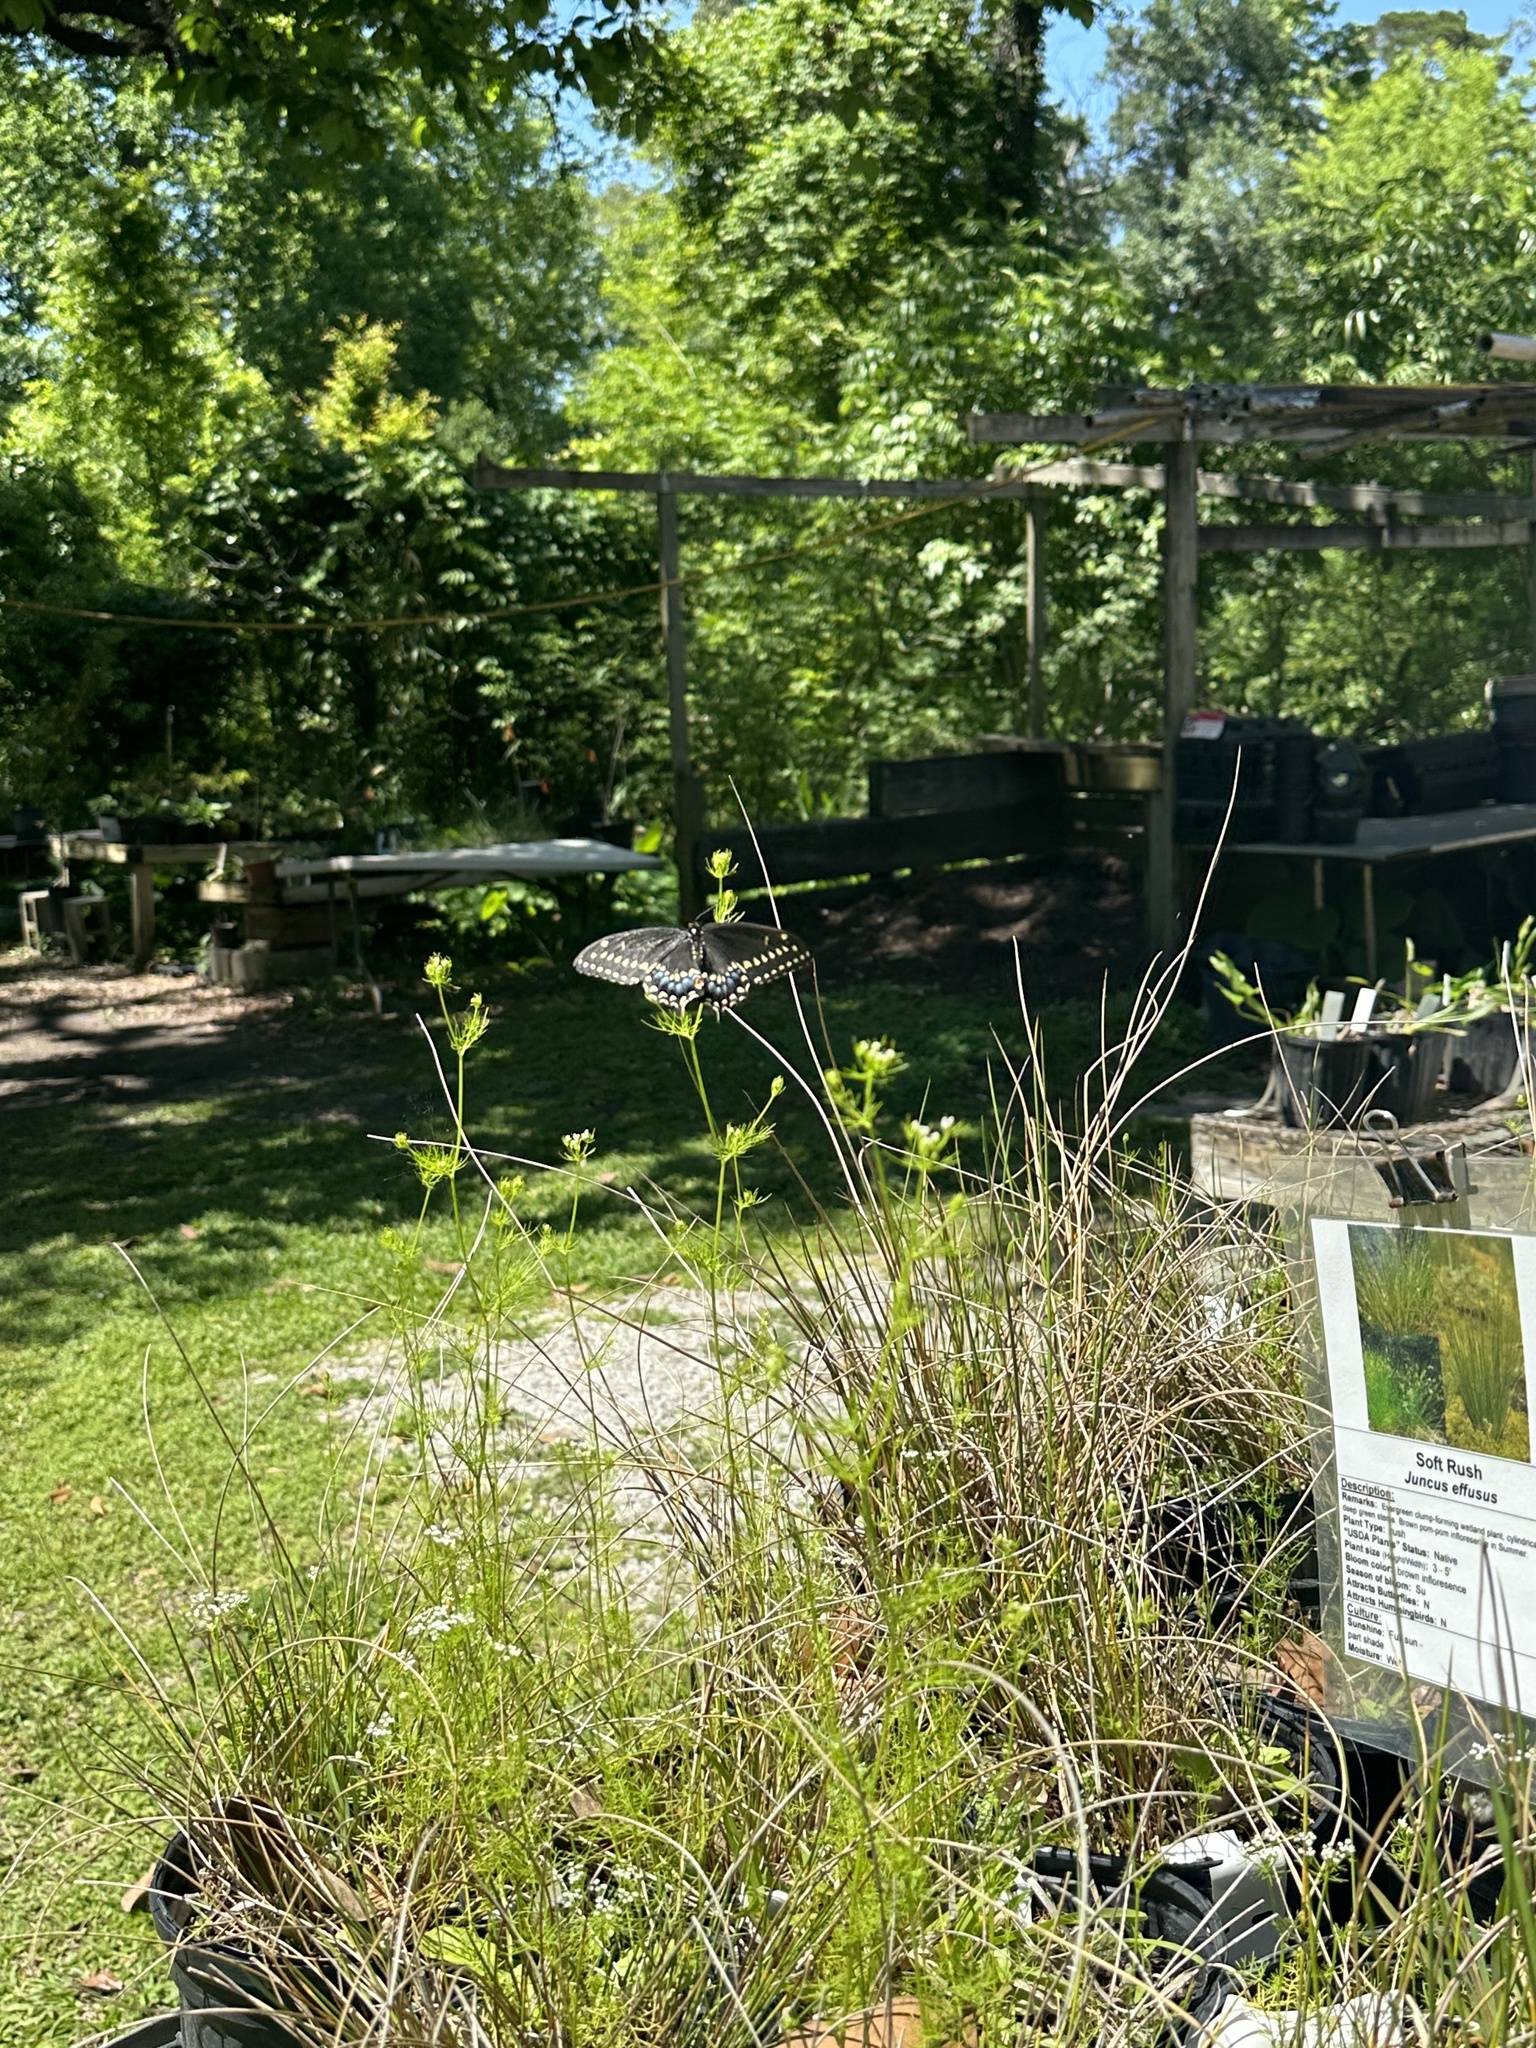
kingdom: Animalia
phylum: Arthropoda
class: Insecta
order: Lepidoptera
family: Papilionidae
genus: Papilio
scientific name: Papilio polyxenes
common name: Black swallowtail
